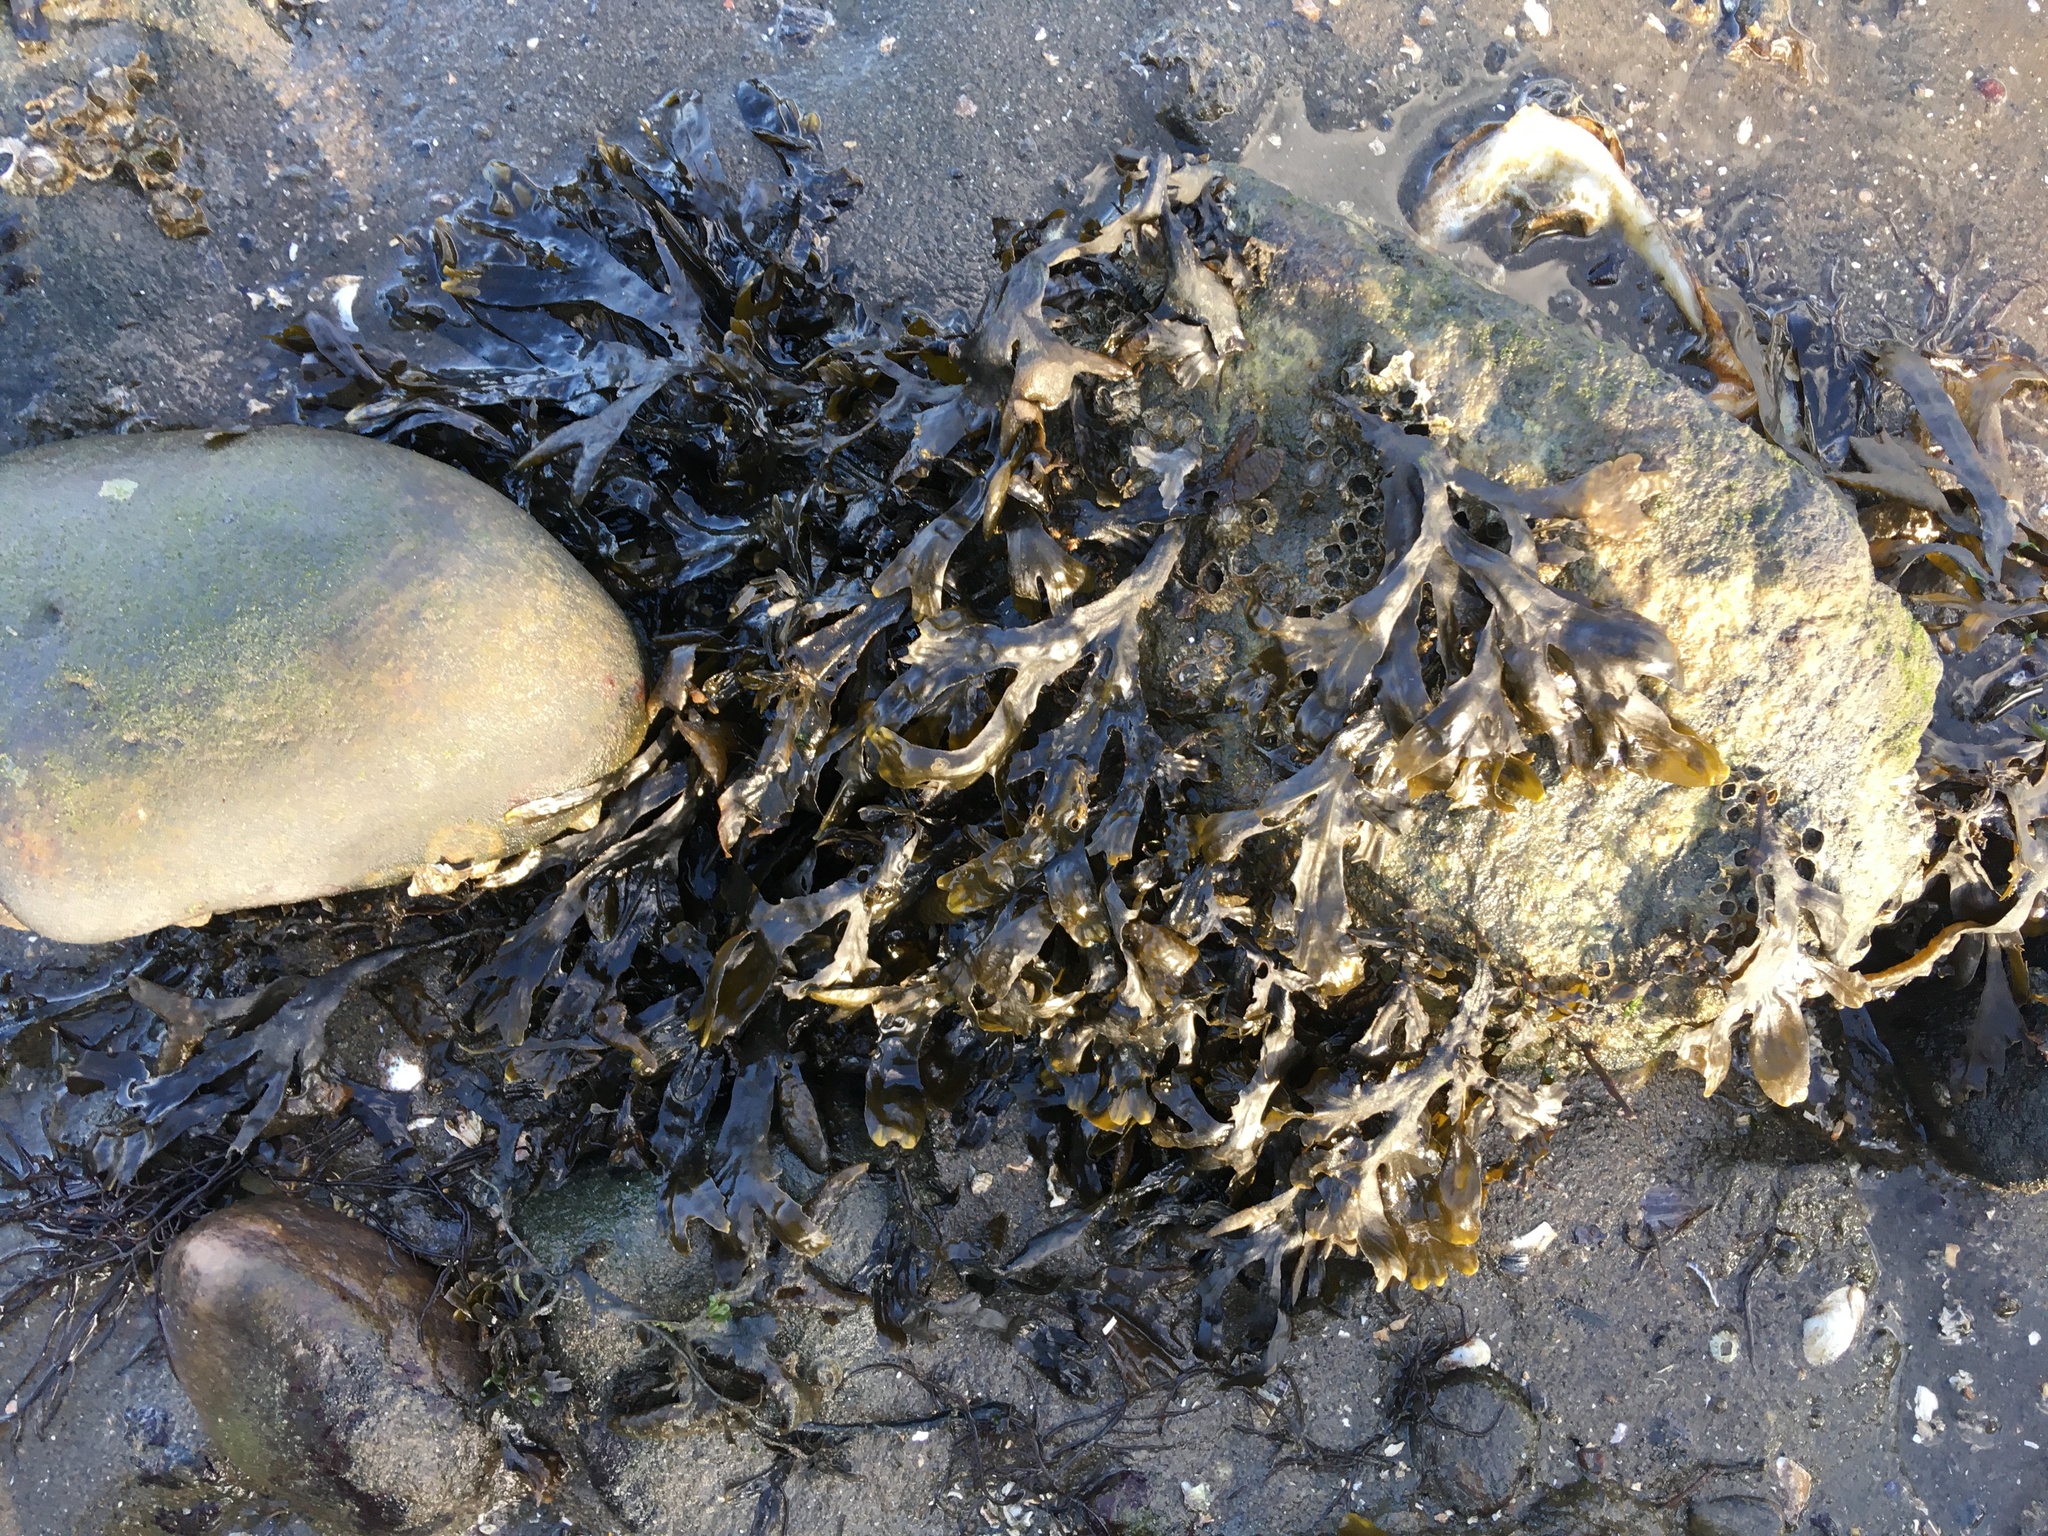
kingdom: Chromista
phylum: Ochrophyta
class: Phaeophyceae
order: Fucales
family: Fucaceae
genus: Fucus
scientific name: Fucus vesiculosus
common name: Bladder wrack
